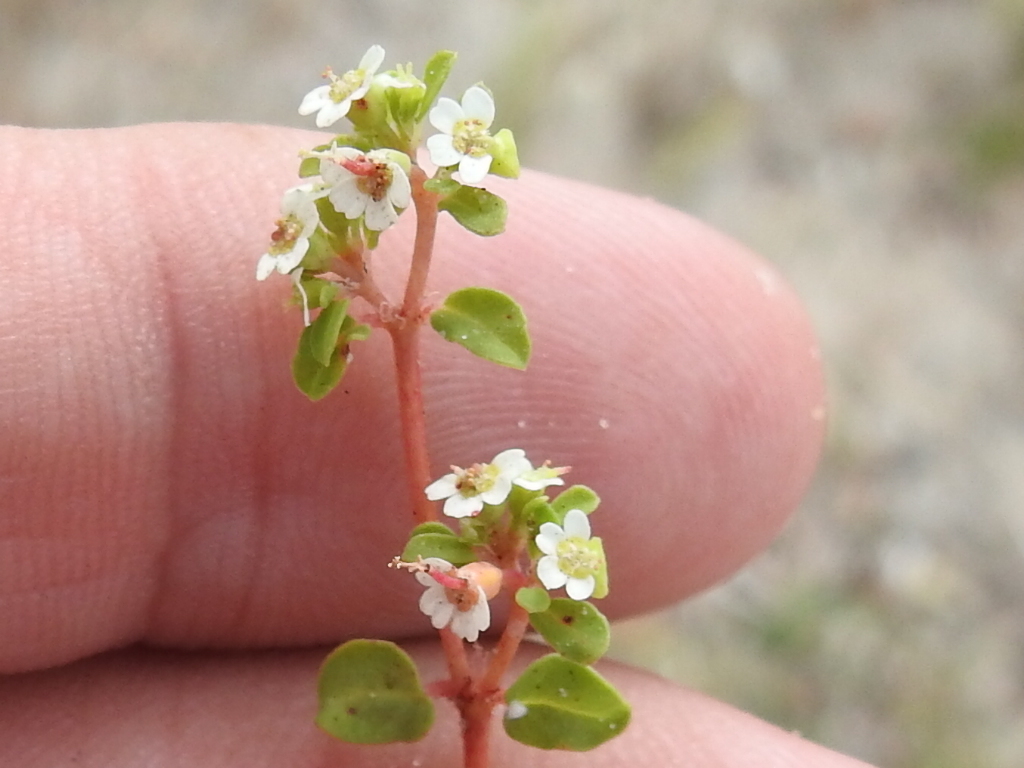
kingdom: Plantae
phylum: Tracheophyta
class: Magnoliopsida
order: Malpighiales
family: Euphorbiaceae
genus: Euphorbia
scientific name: Euphorbia cordifolia
